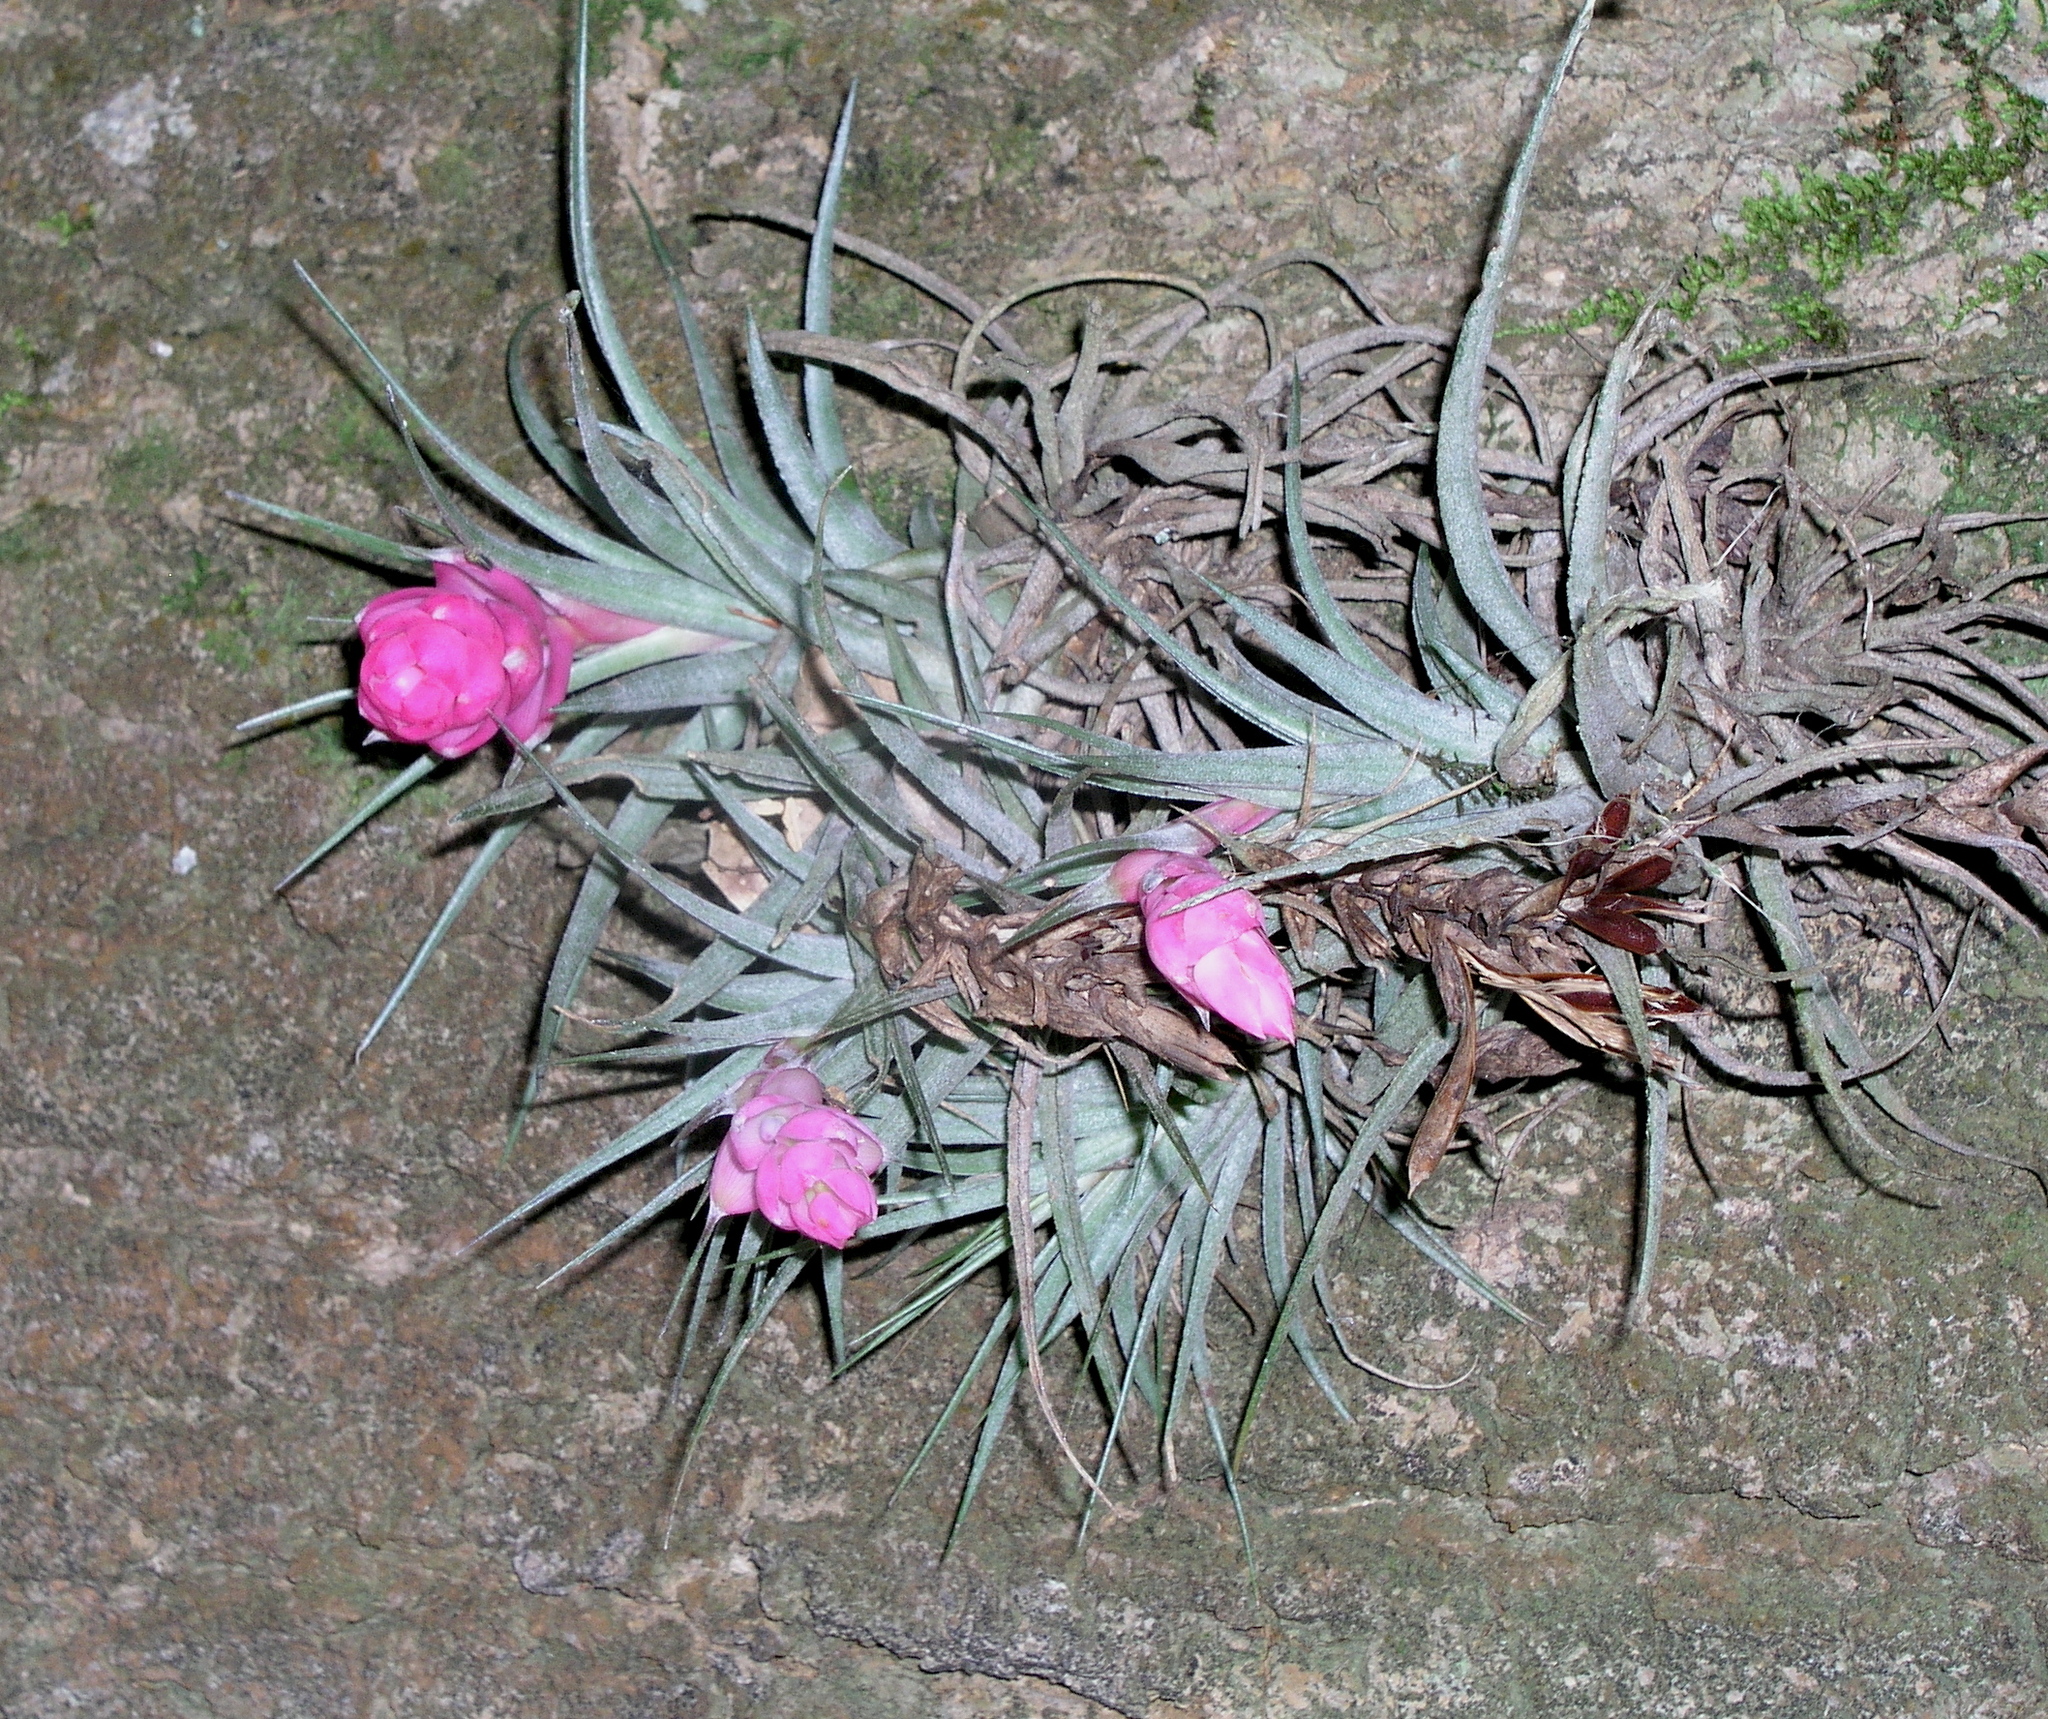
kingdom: Plantae
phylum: Tracheophyta
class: Liliopsida
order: Poales
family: Bromeliaceae
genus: Tillandsia
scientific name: Tillandsia stricta
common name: Airplant
